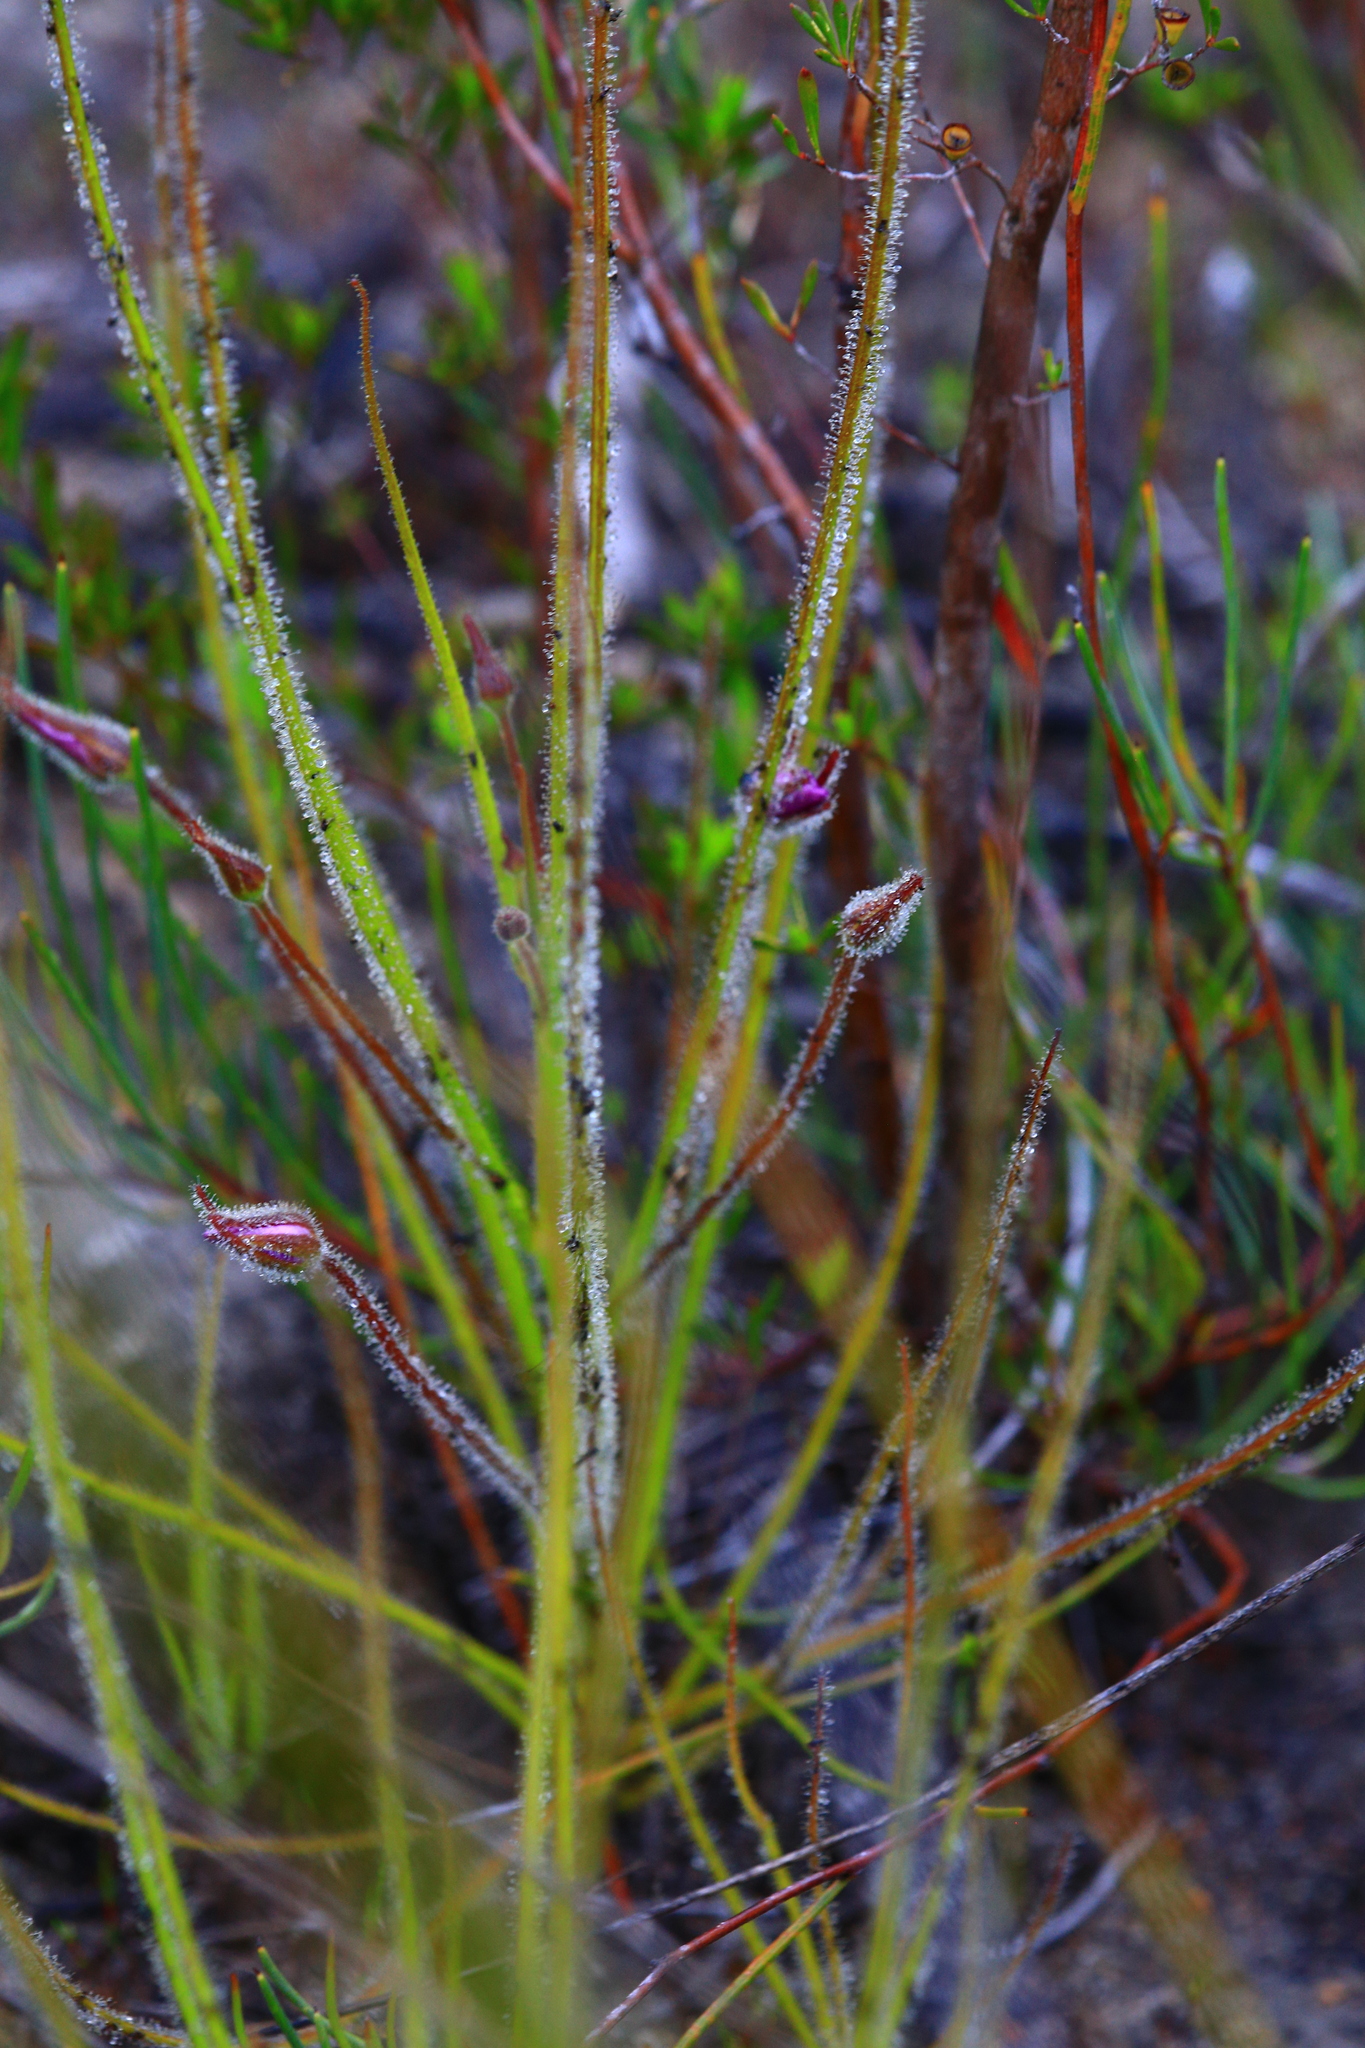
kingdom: Plantae
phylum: Tracheophyta
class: Magnoliopsida
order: Lamiales
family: Byblidaceae
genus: Byblis
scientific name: Byblis gigantea
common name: Rainbowplant
